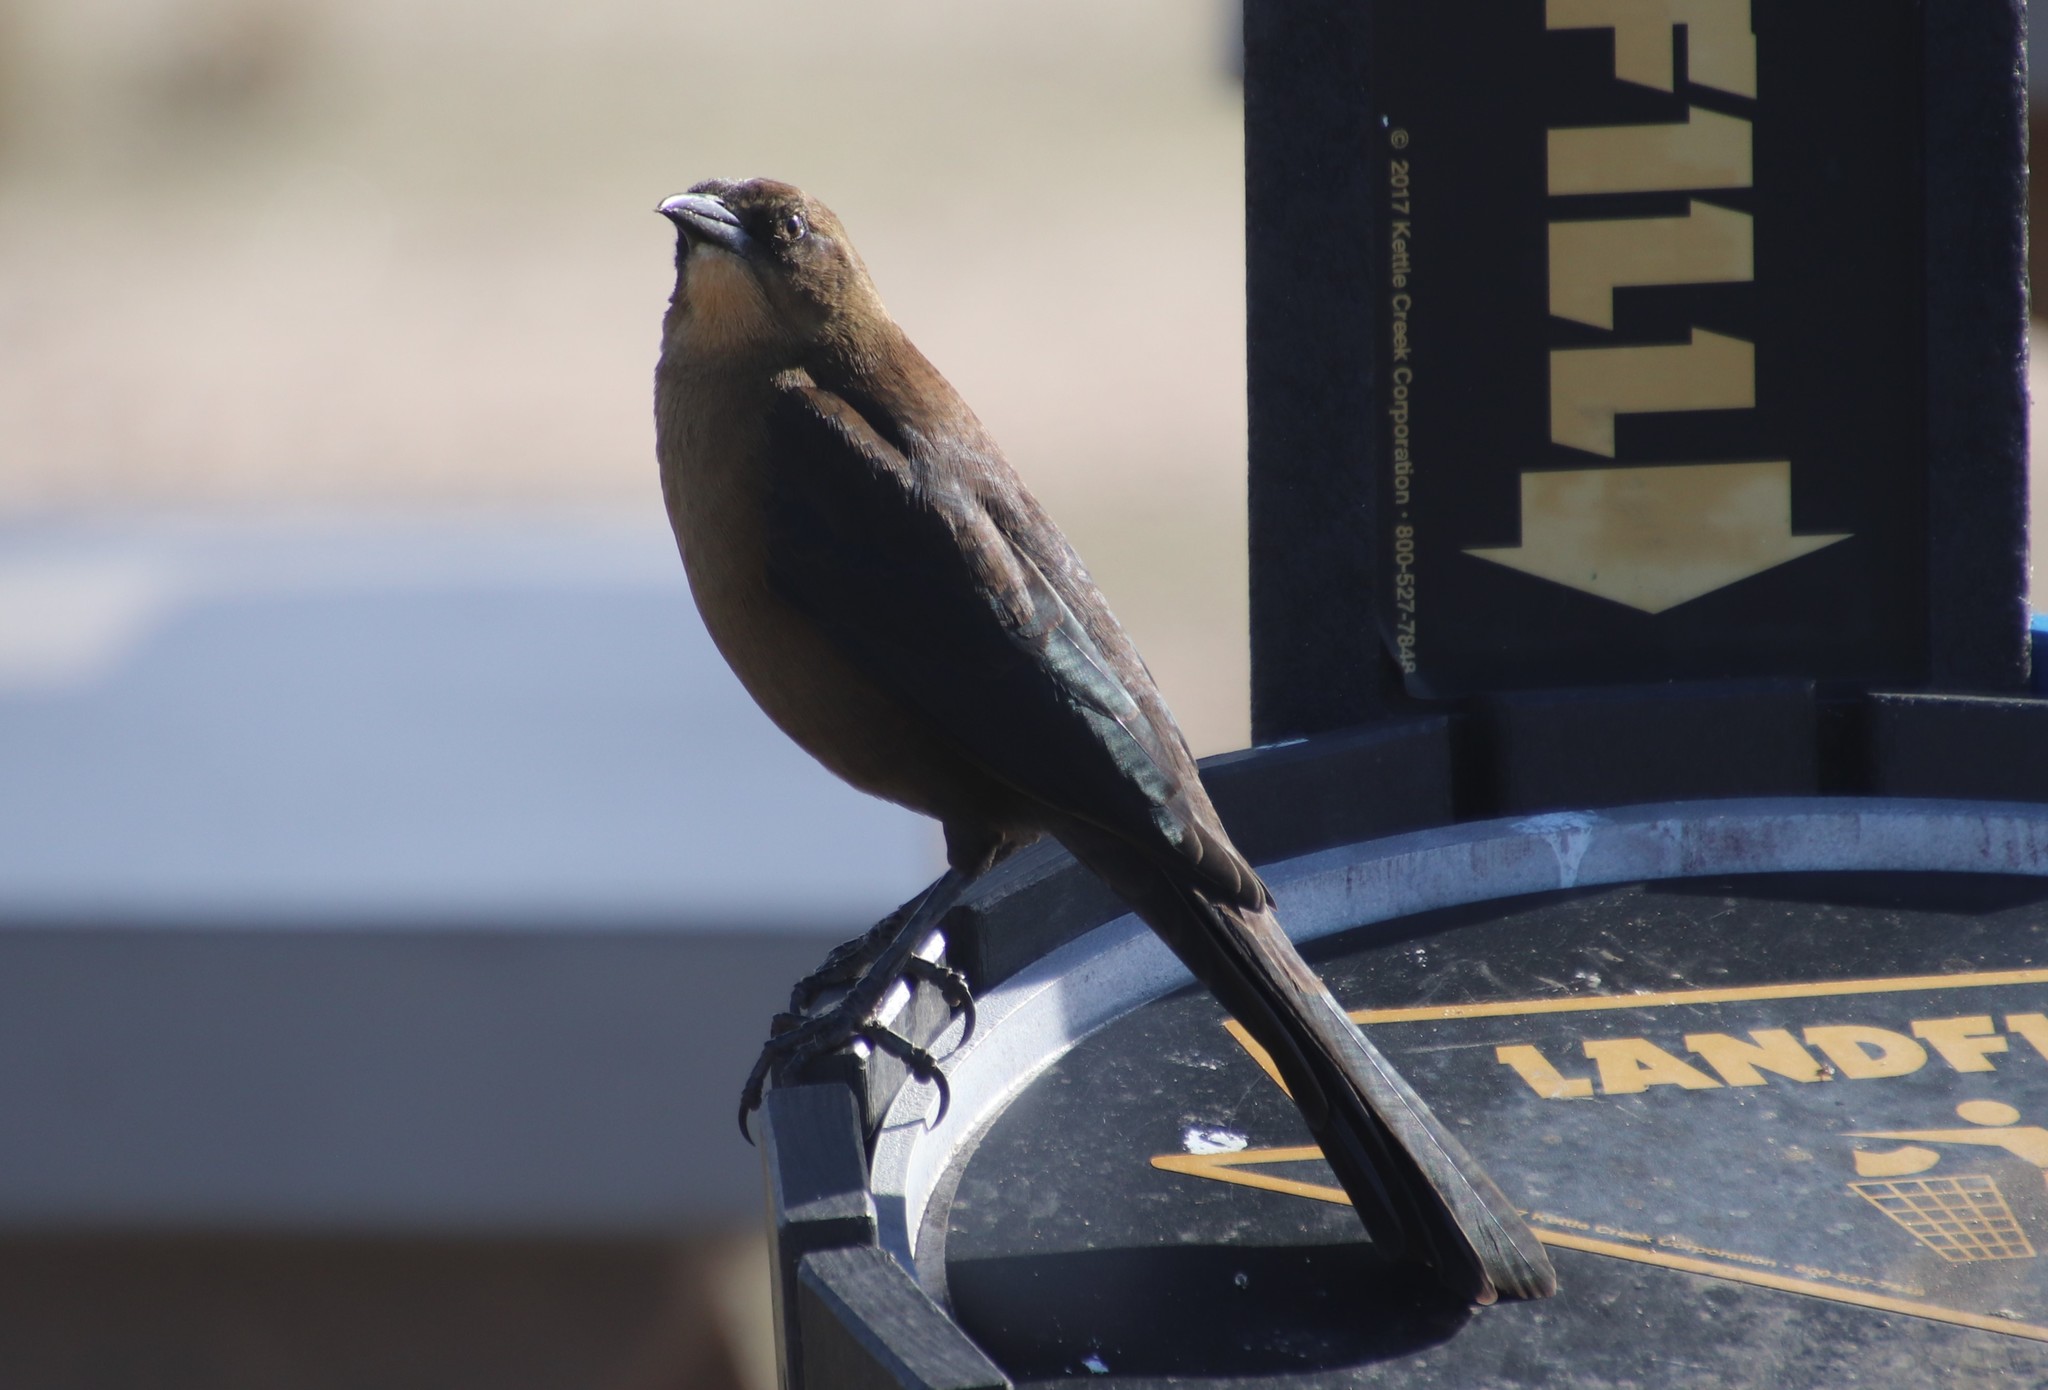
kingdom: Animalia
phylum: Chordata
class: Aves
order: Passeriformes
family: Icteridae
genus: Quiscalus
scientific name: Quiscalus mexicanus
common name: Great-tailed grackle
